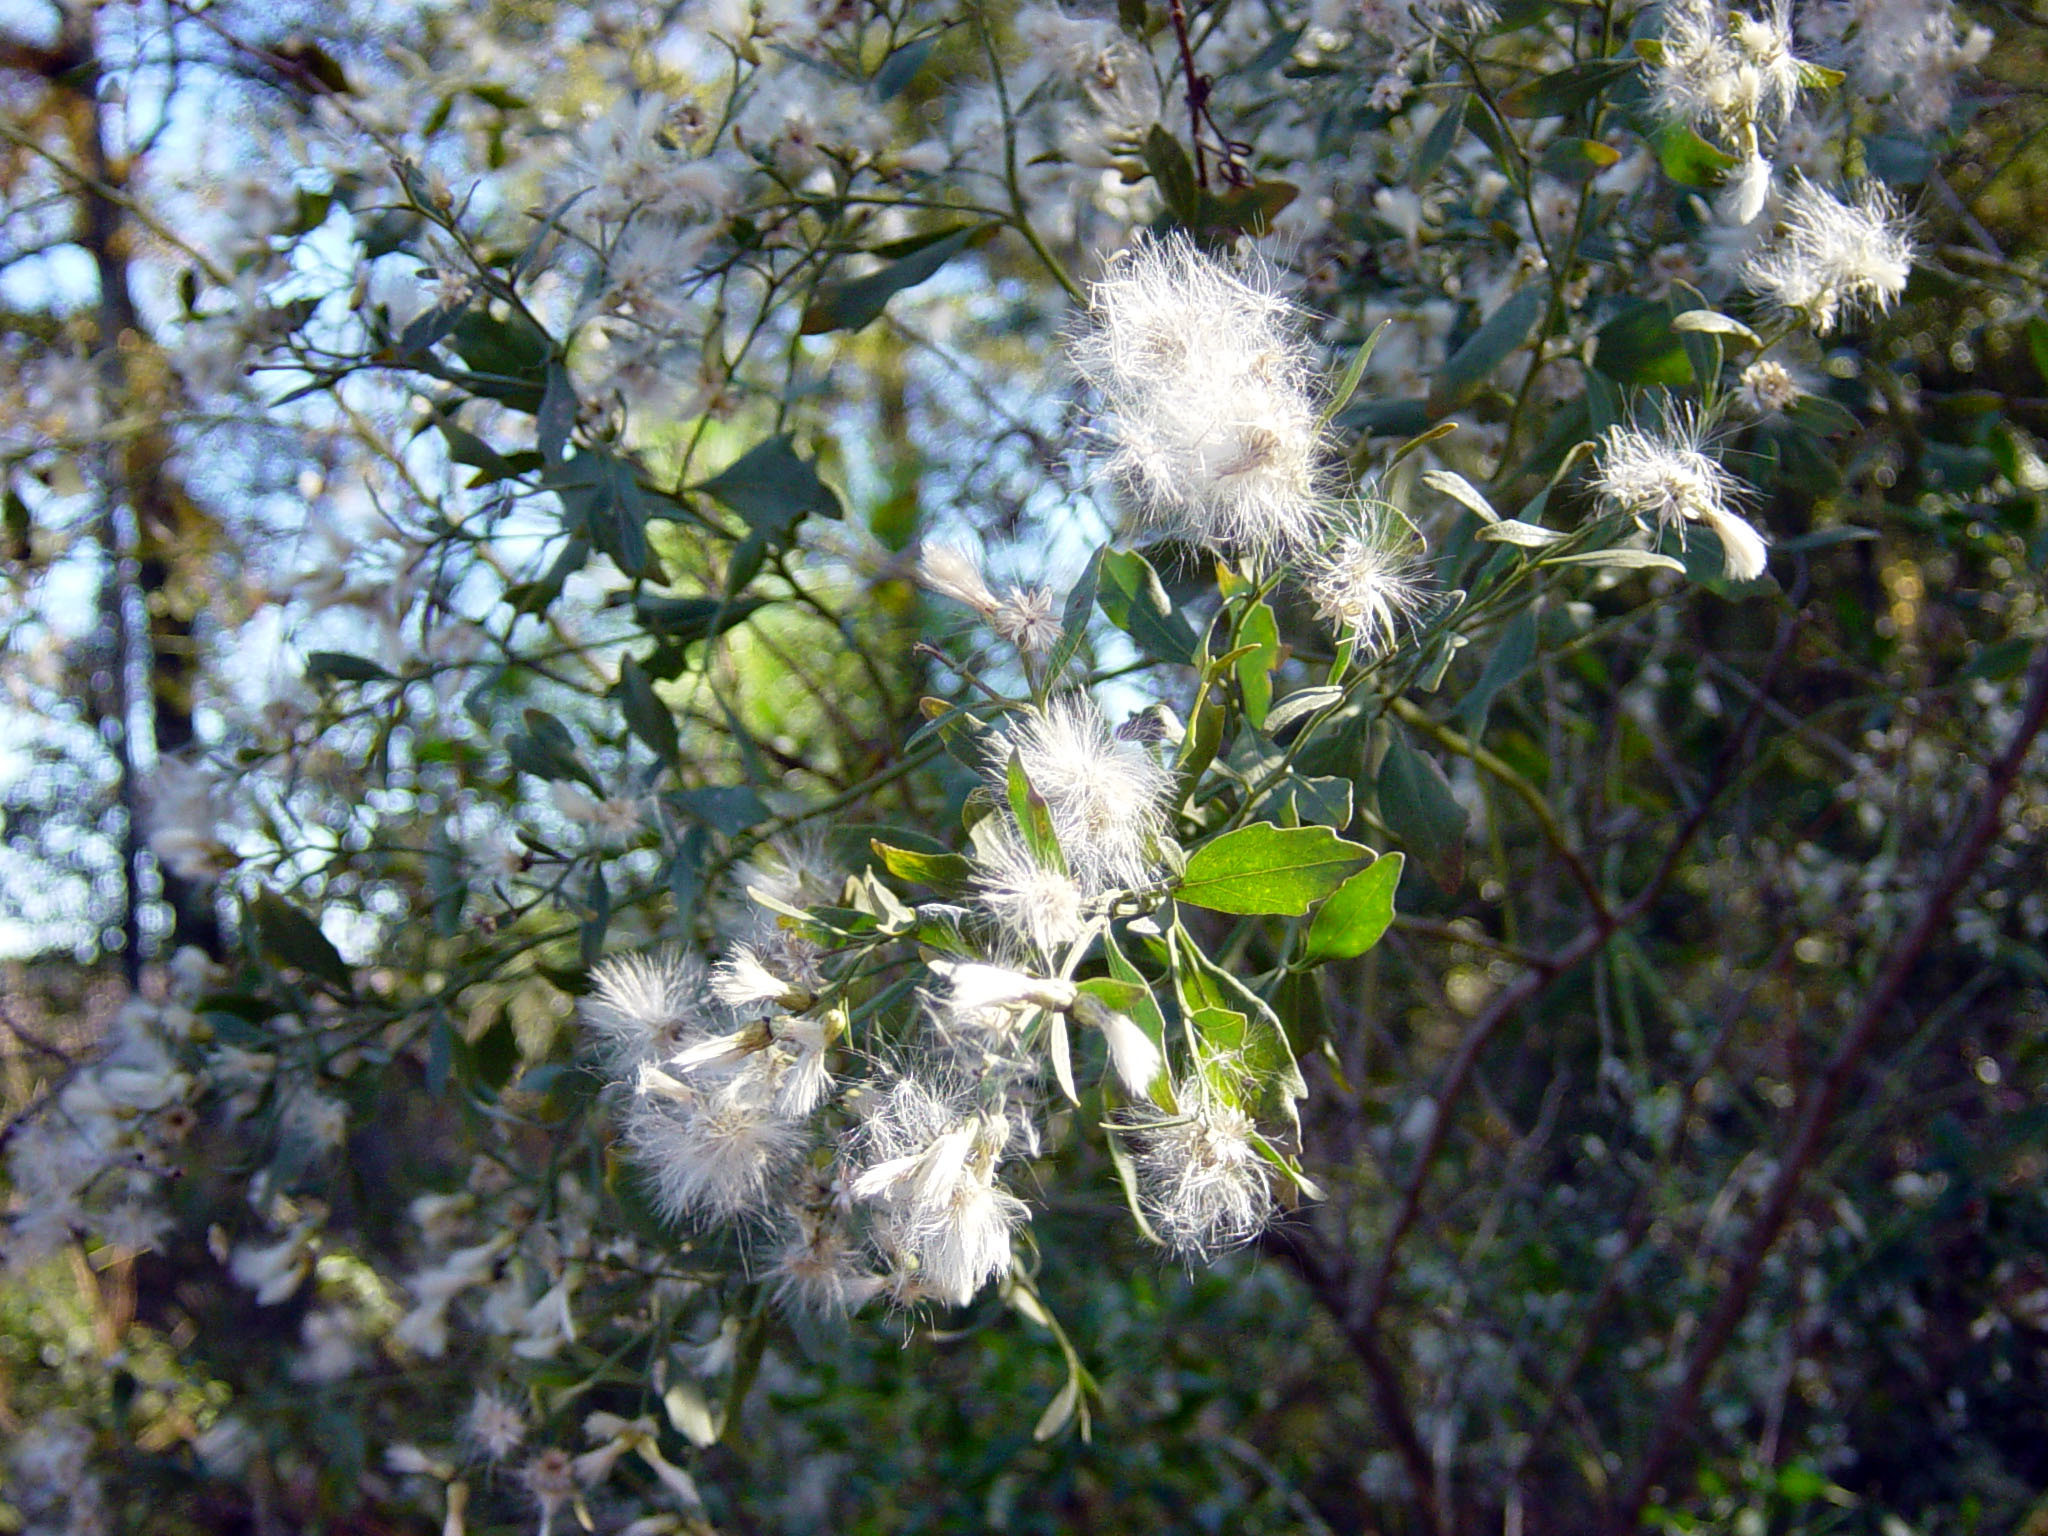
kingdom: Plantae
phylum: Tracheophyta
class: Magnoliopsida
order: Asterales
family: Asteraceae
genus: Baccharis
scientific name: Baccharis halimifolia
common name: Eastern baccharis
